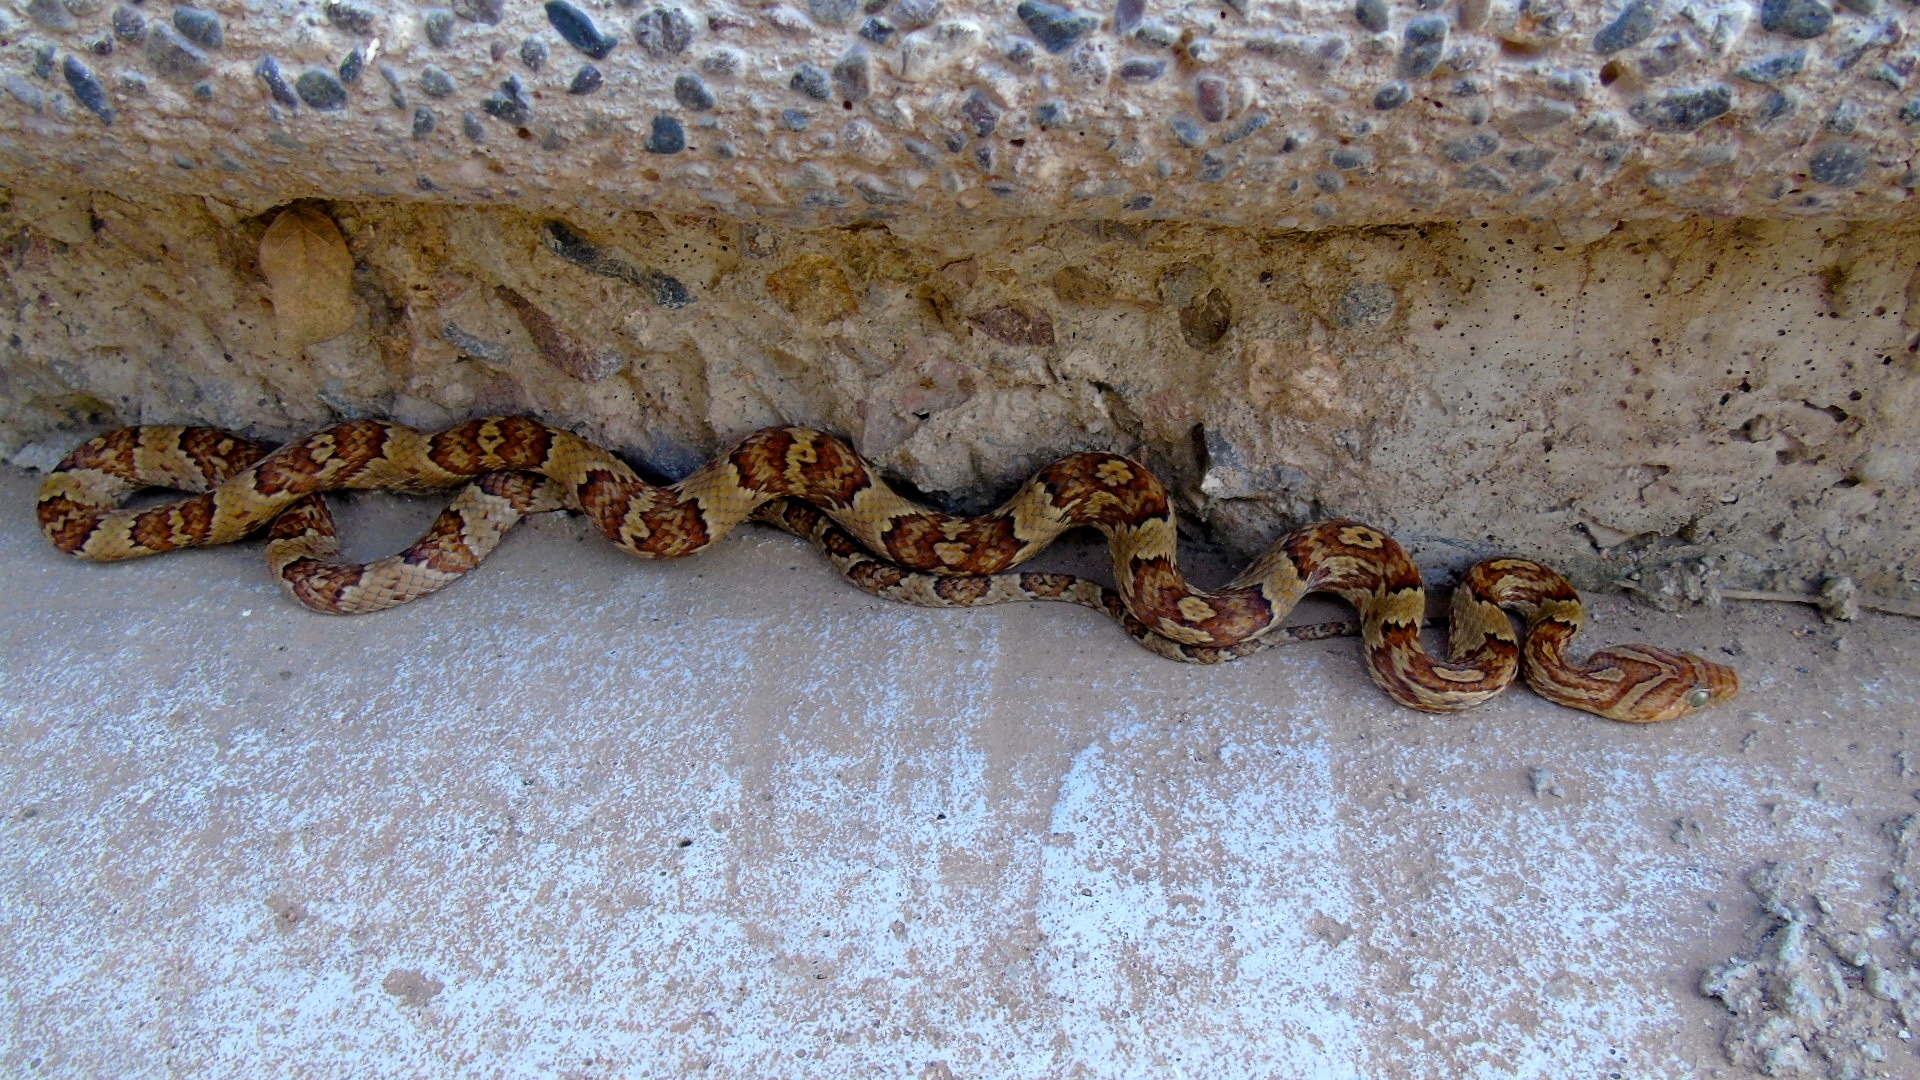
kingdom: Animalia
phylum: Chordata
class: Squamata
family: Colubridae
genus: Trimorphodon
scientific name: Trimorphodon paucimaculatus
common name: Sinaloan lyresnake
